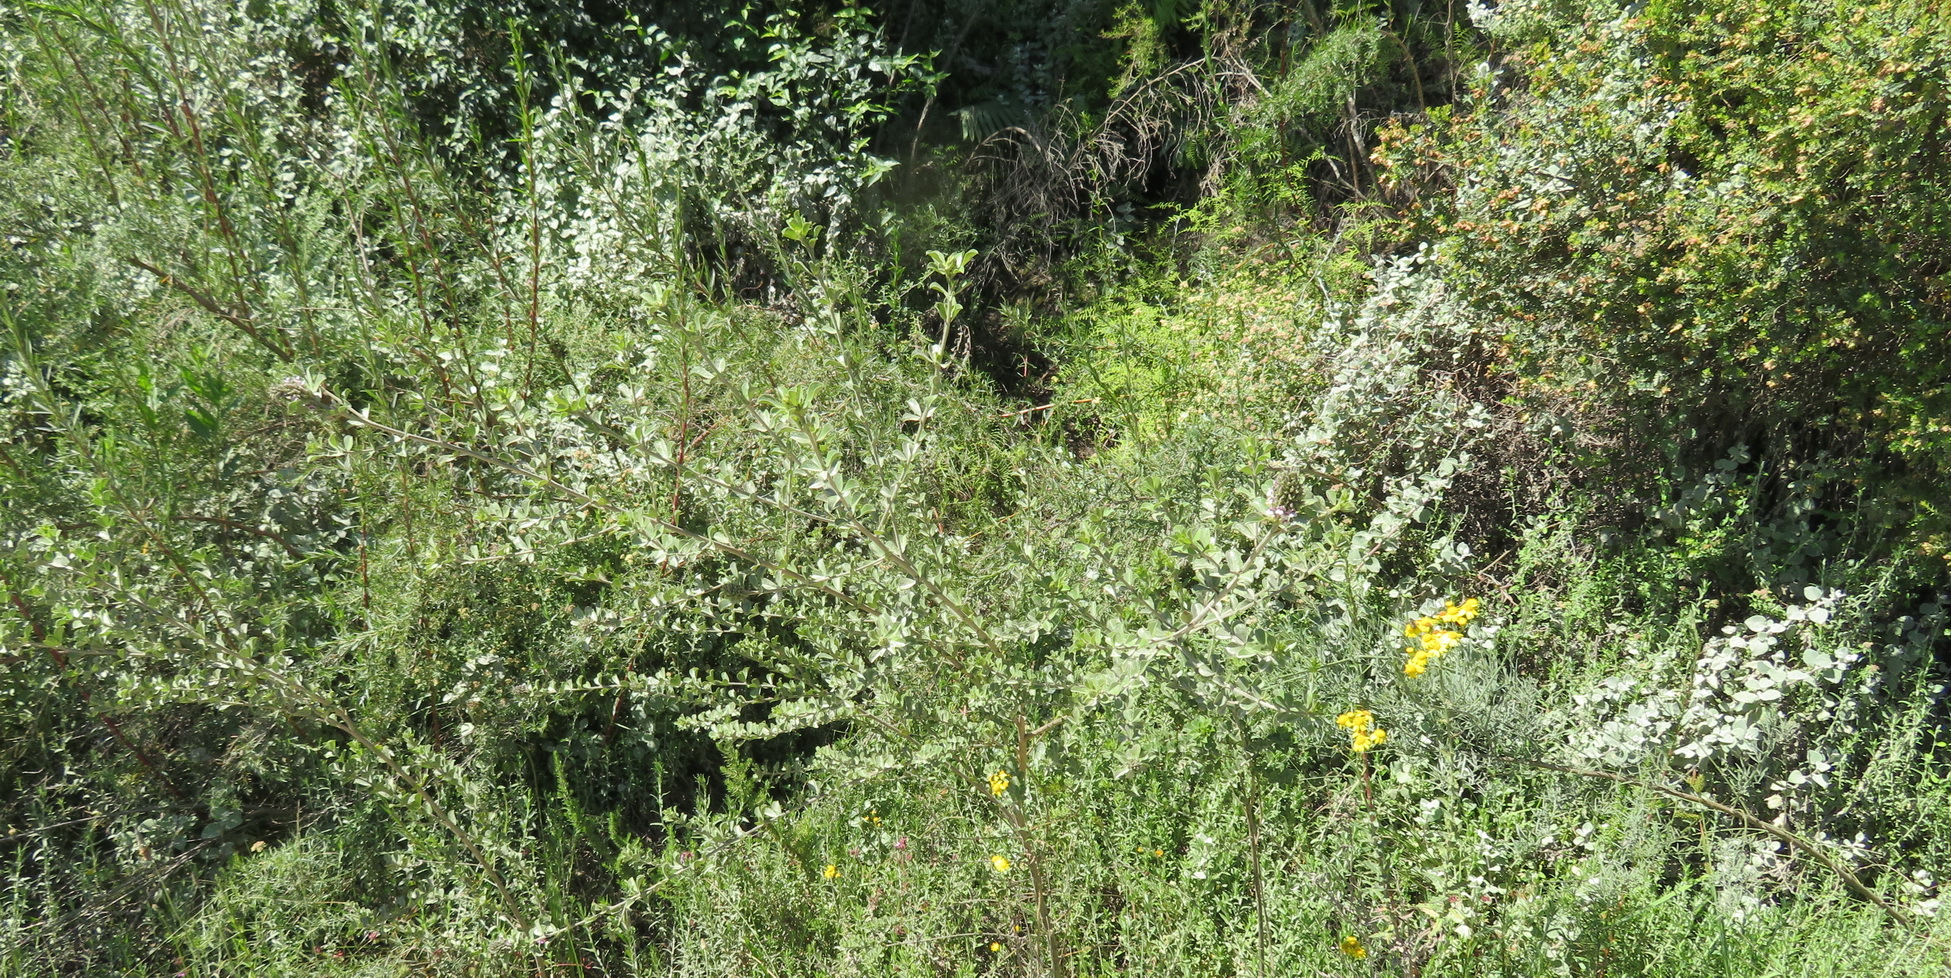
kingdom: Plantae
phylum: Tracheophyta
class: Magnoliopsida
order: Fabales
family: Fabaceae
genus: Psoralea
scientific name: Psoralea stachyera
